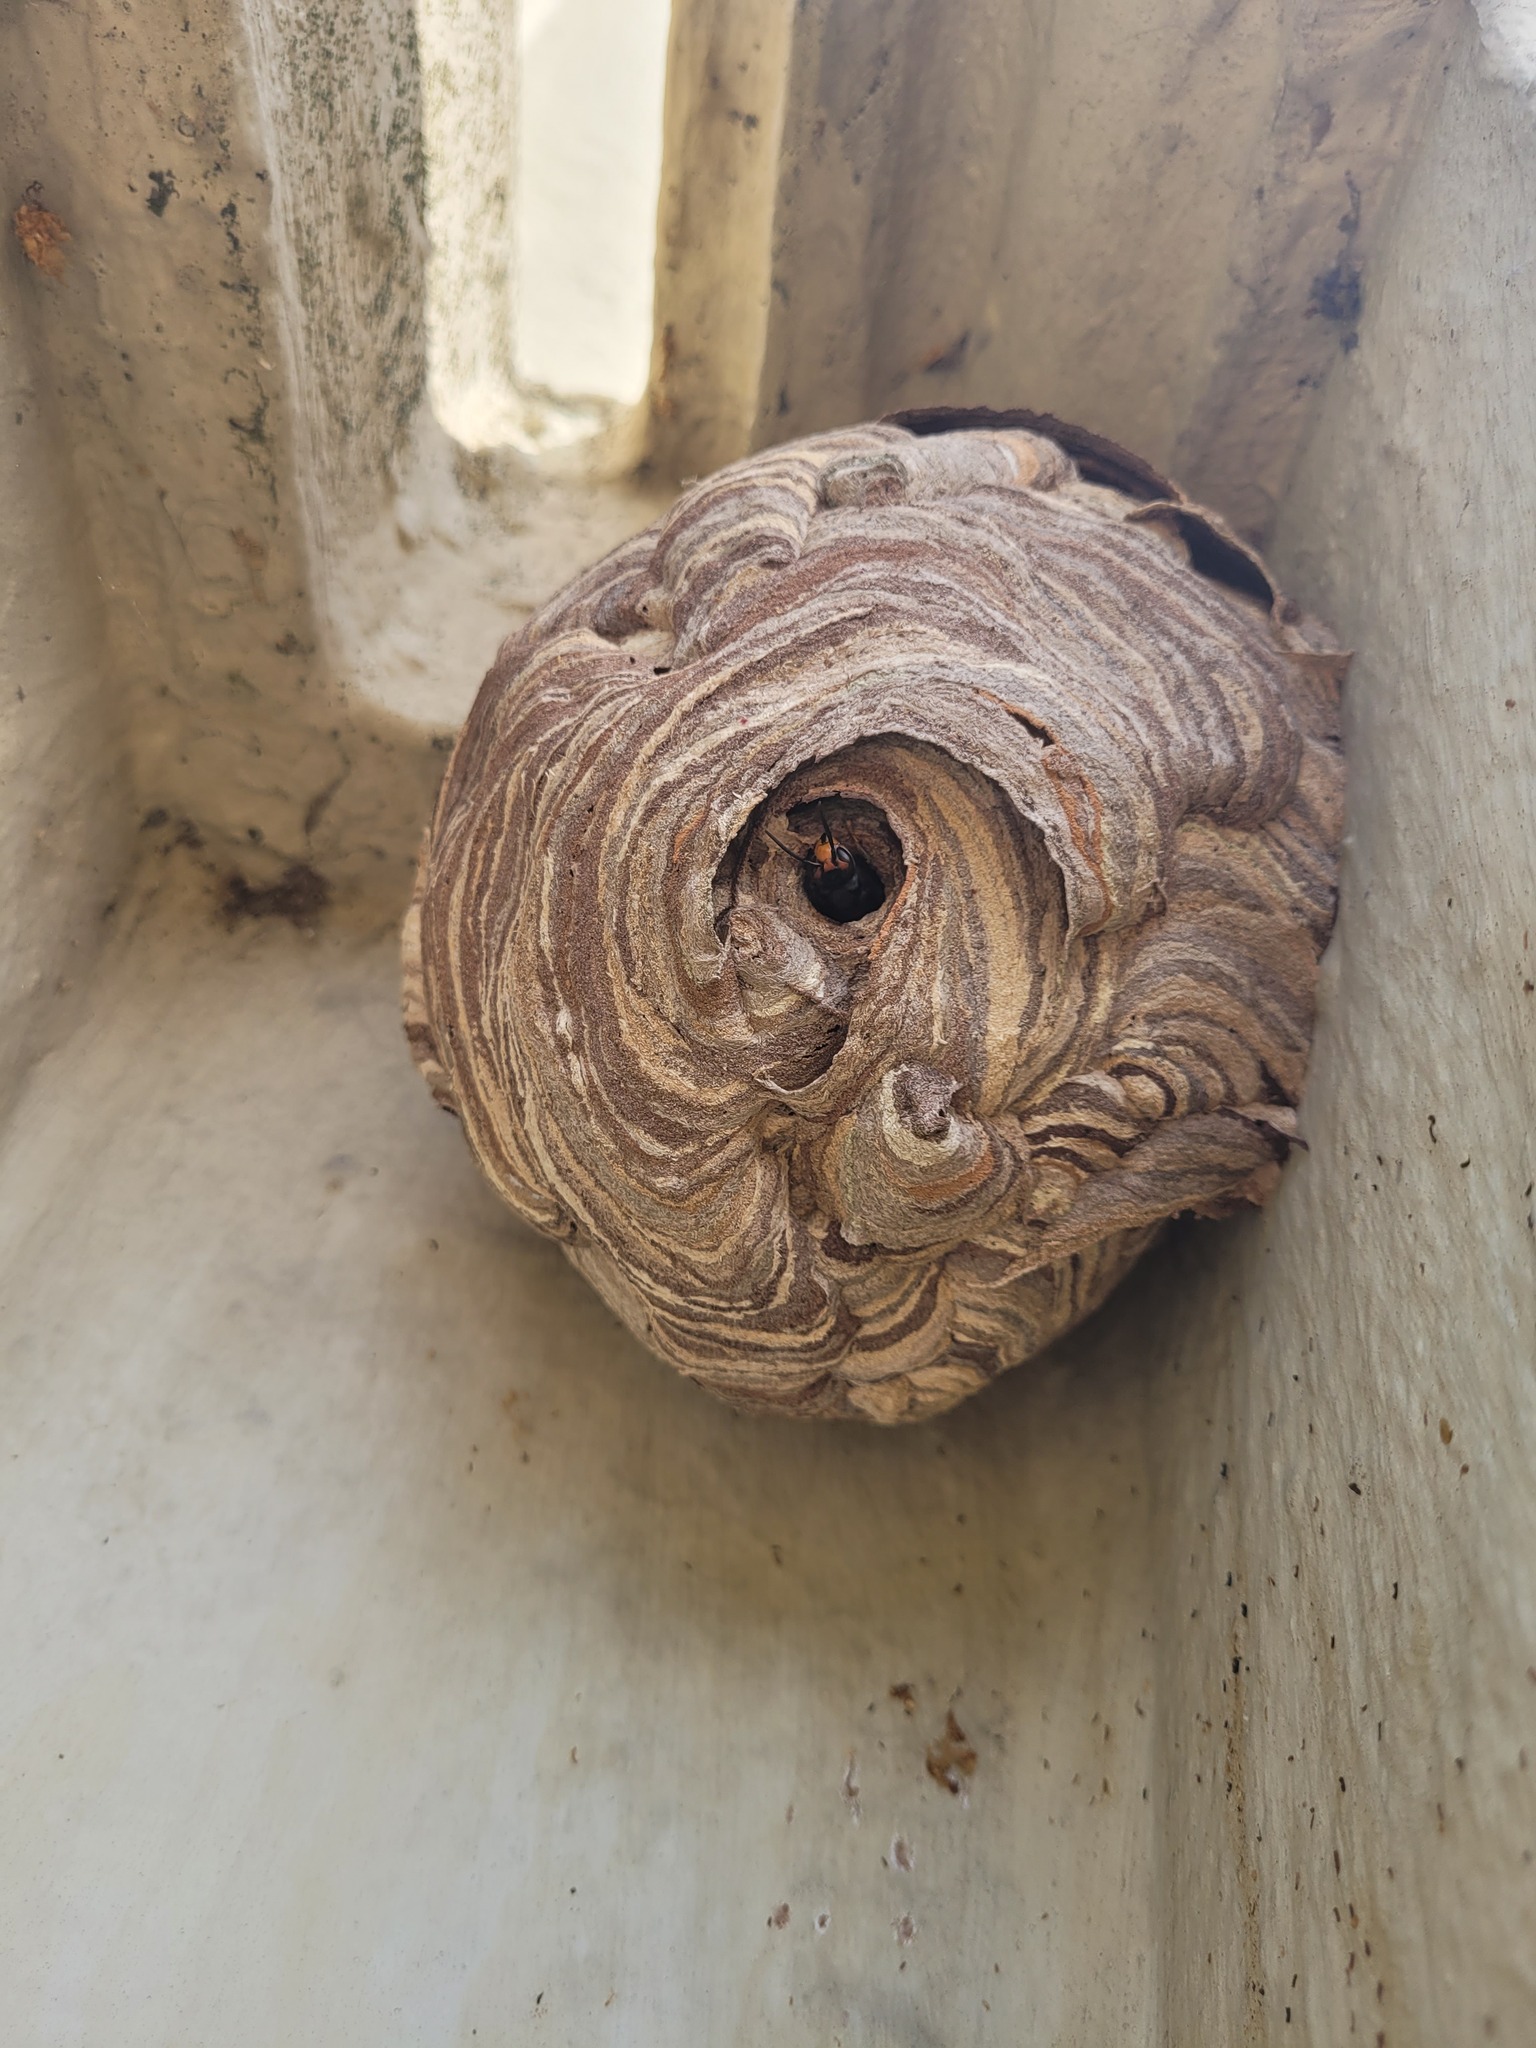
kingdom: Animalia
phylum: Arthropoda
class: Insecta
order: Hymenoptera
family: Vespidae
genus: Vespa
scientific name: Vespa velutina
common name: Asian hornet
